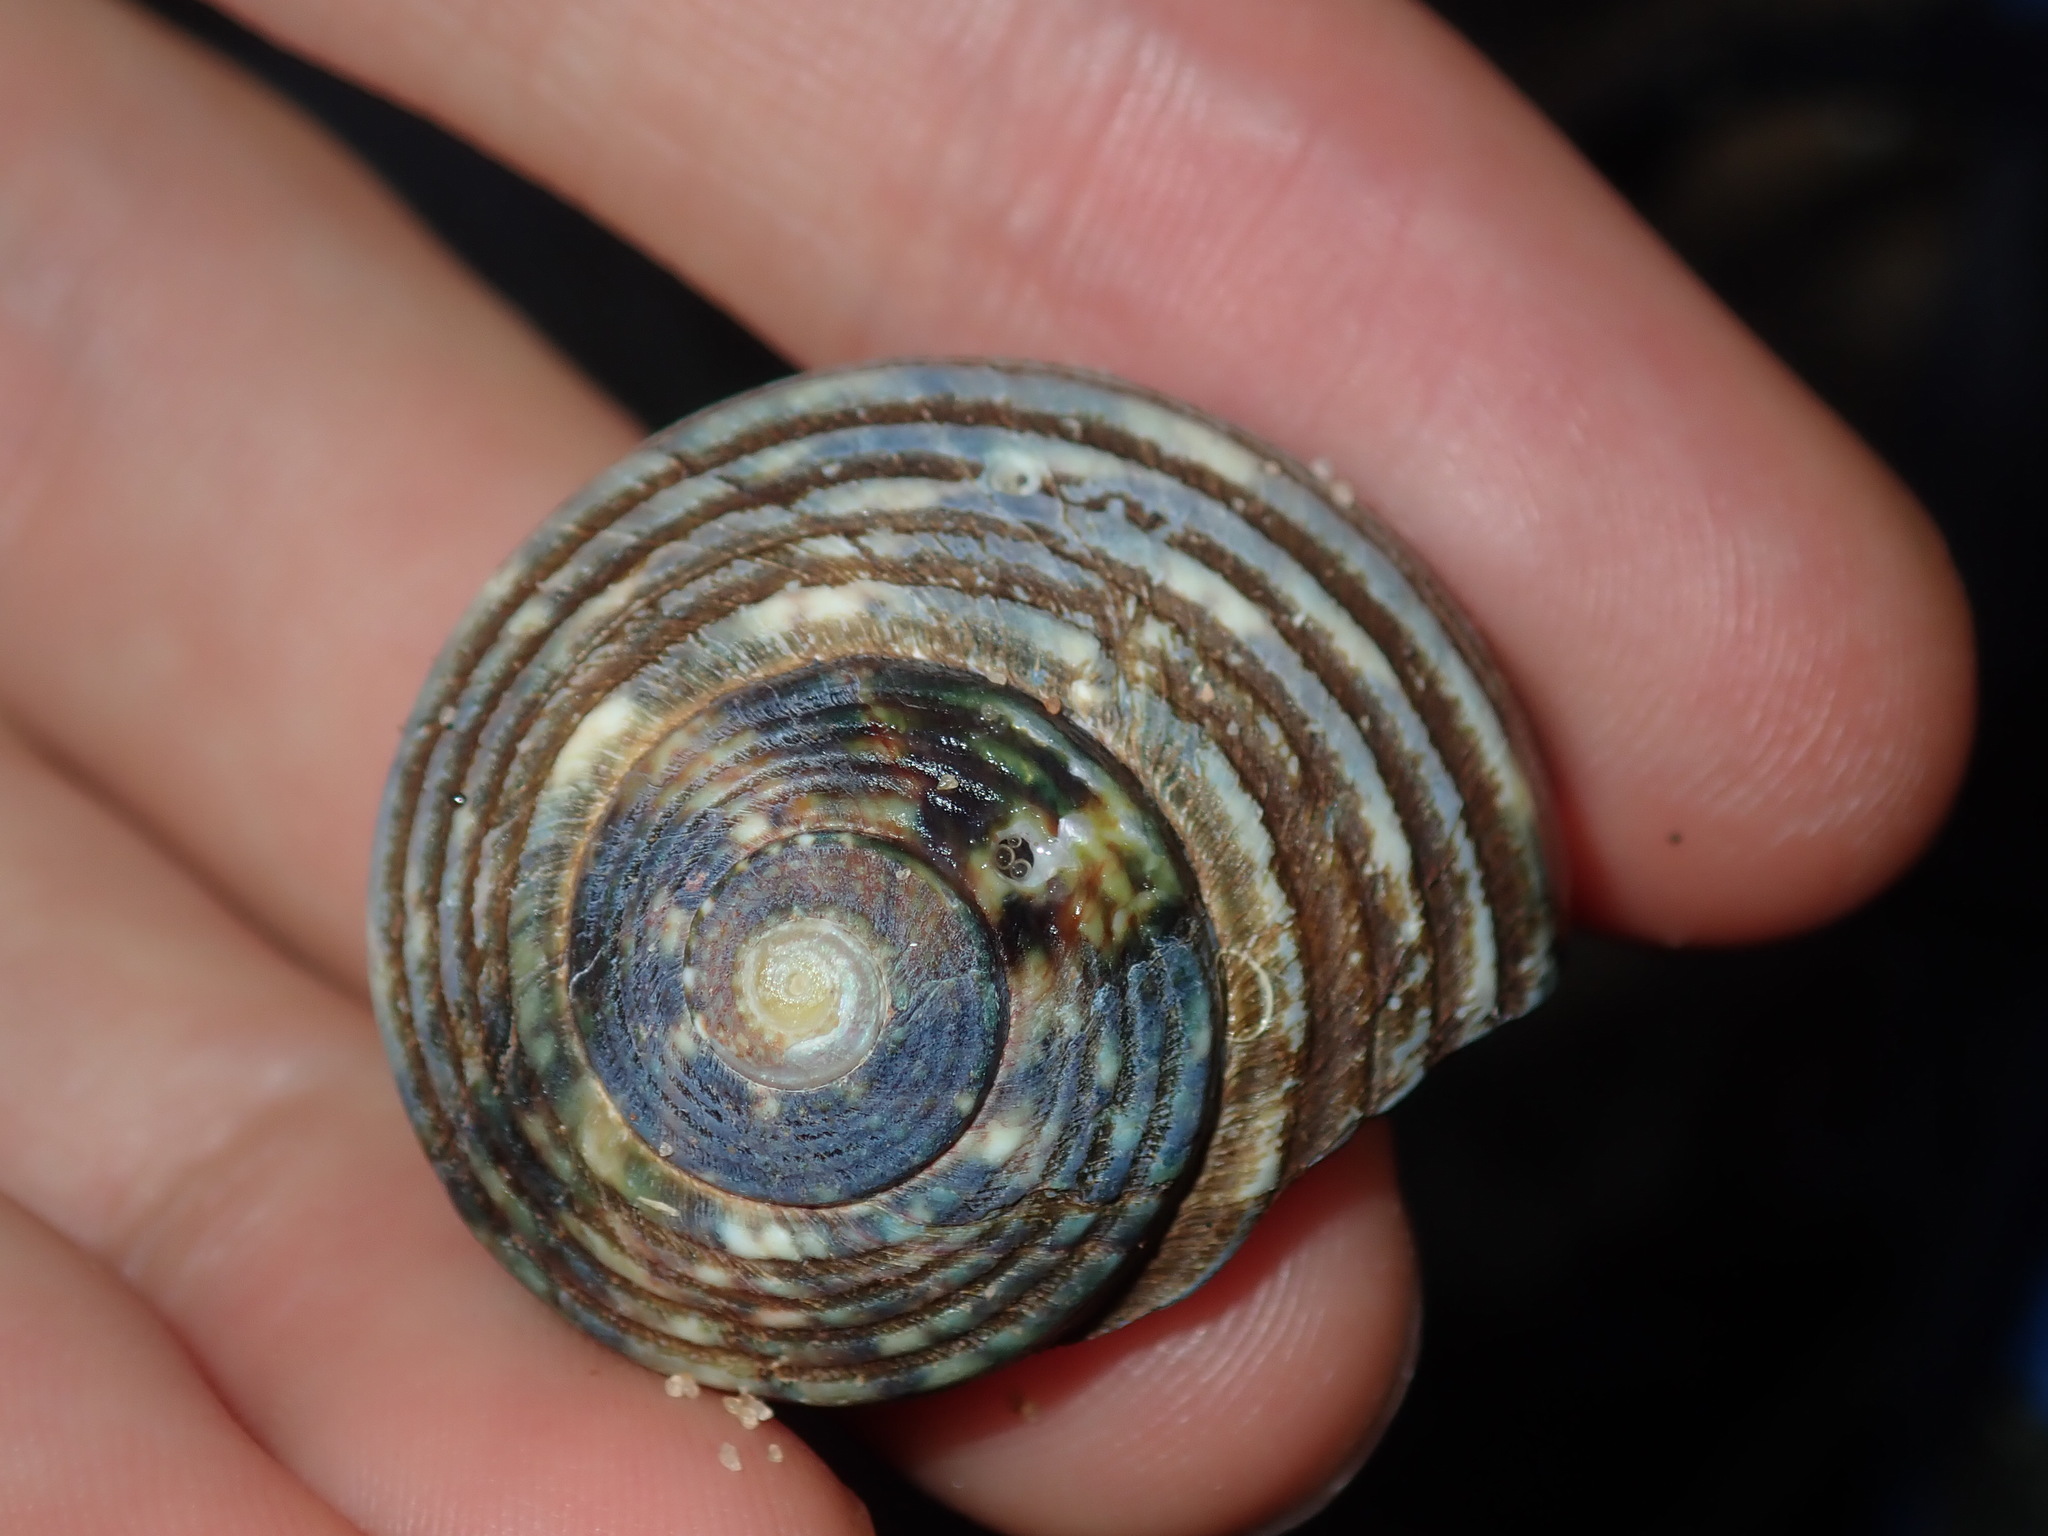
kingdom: Animalia
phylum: Mollusca
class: Gastropoda
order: Trochida
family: Turbinidae
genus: Lunella
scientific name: Lunella undulata
